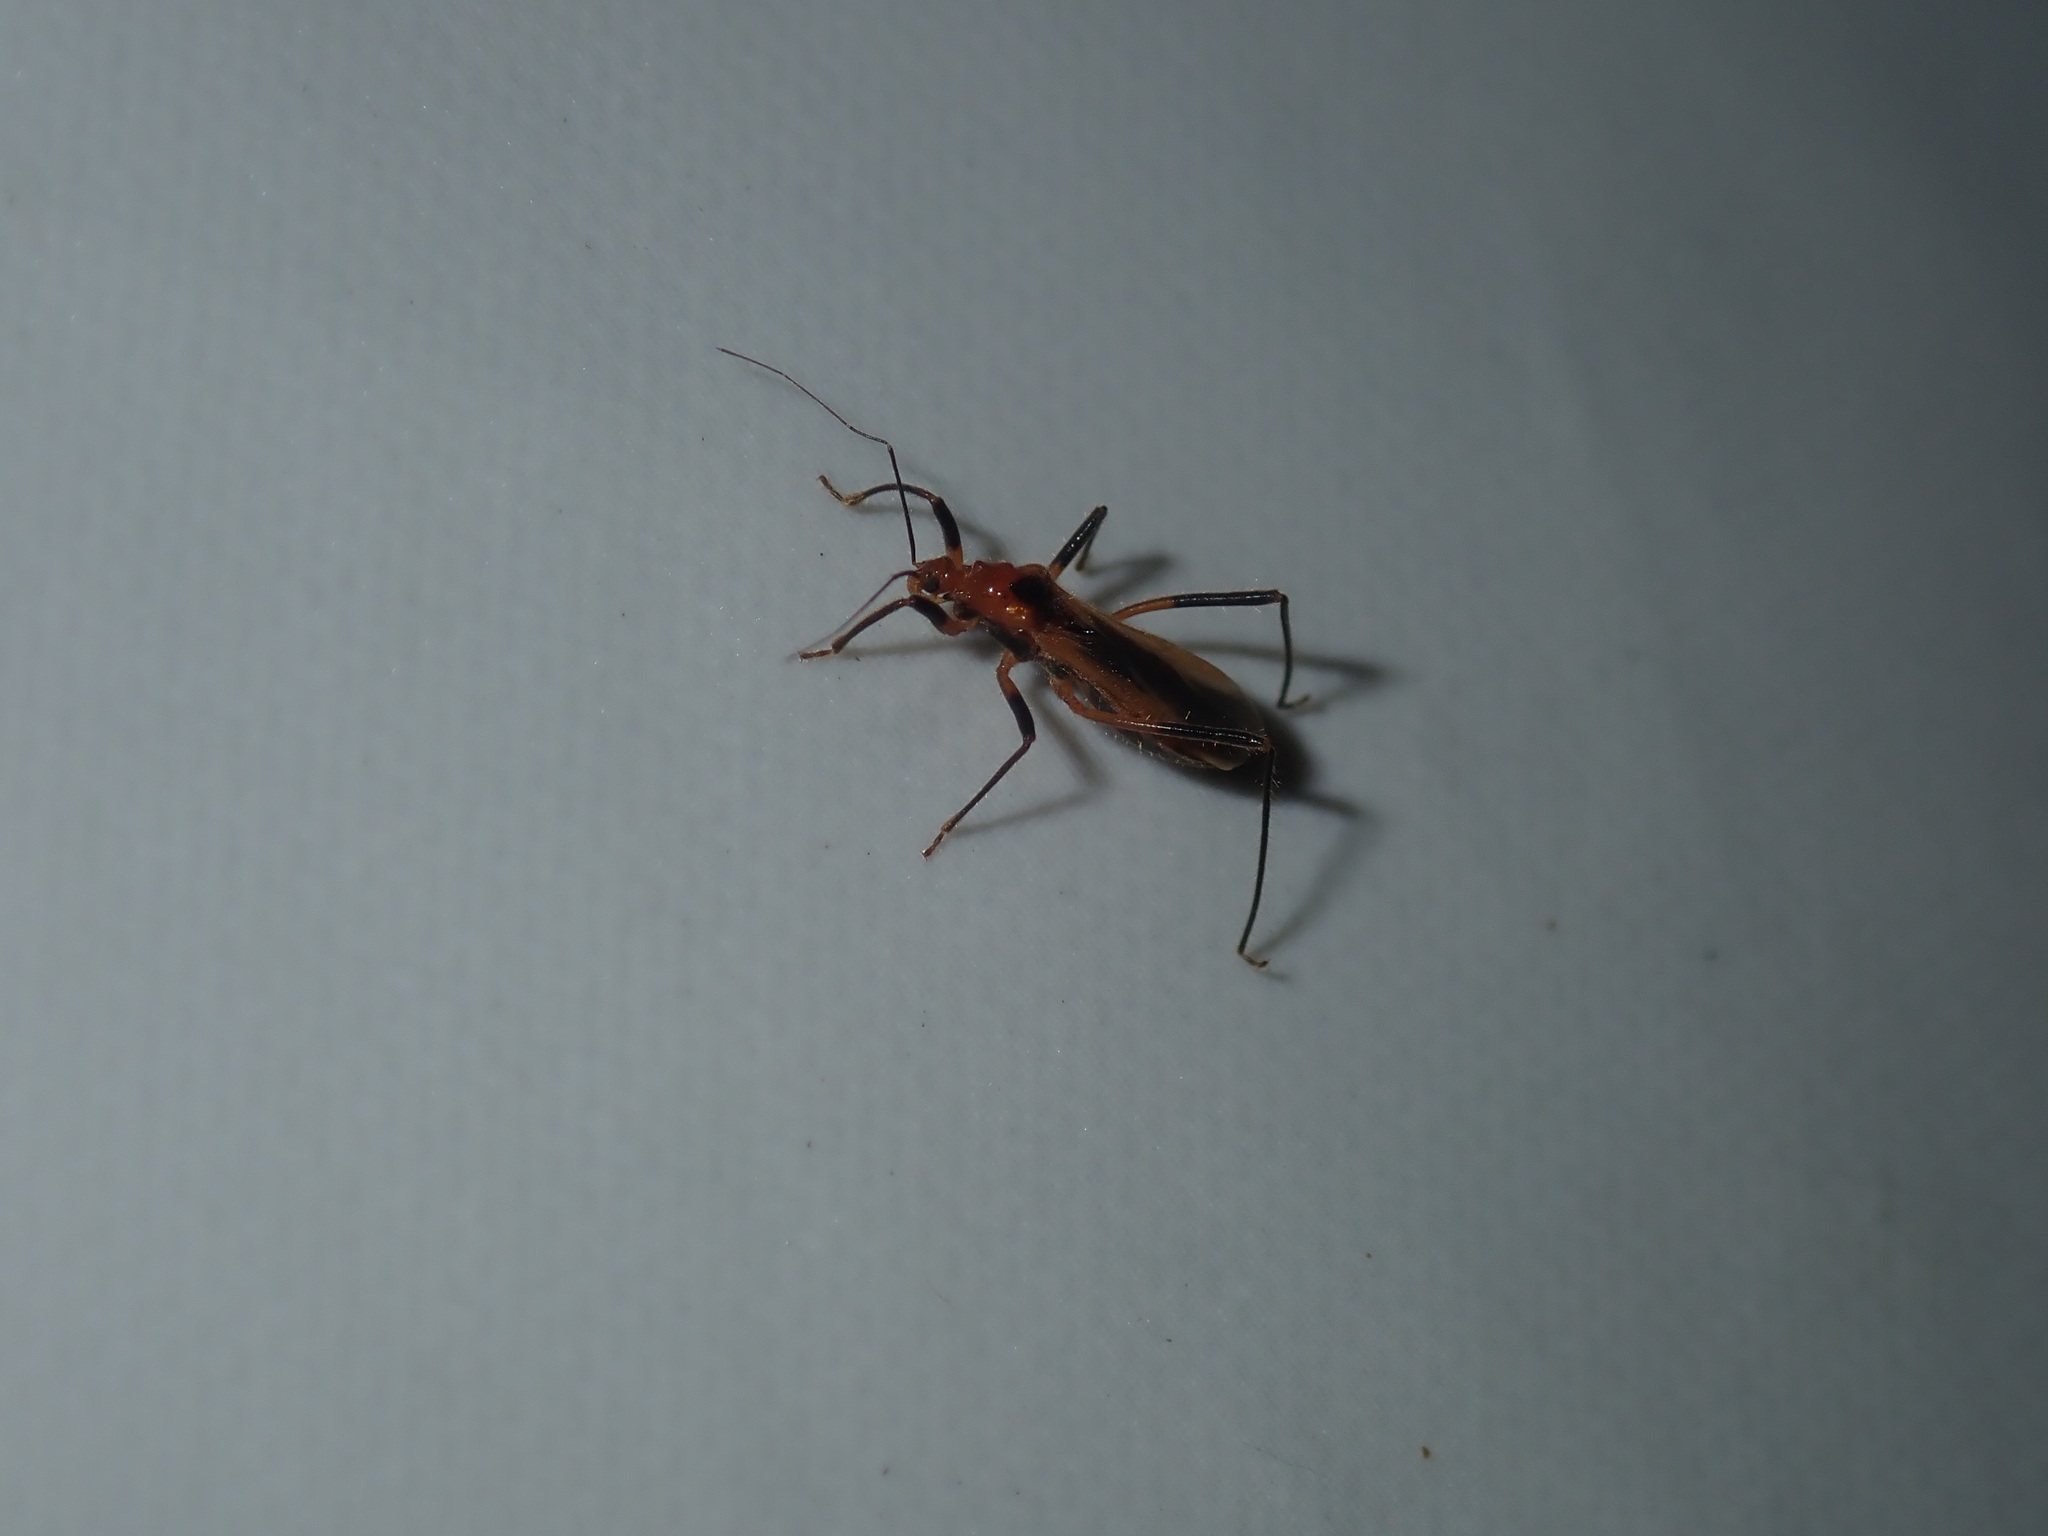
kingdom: Animalia
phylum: Arthropoda
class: Insecta
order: Hemiptera
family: Reduviidae
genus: Micropolytoxus
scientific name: Micropolytoxus hackeri
